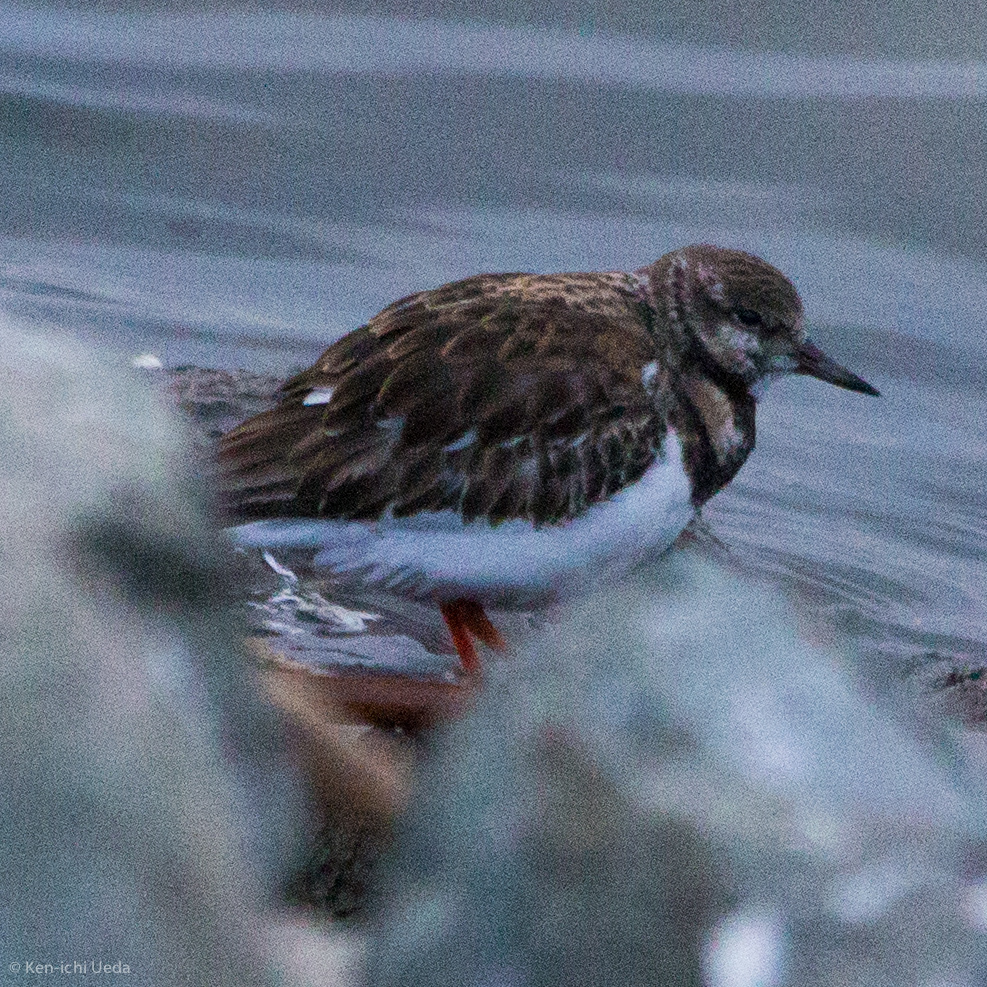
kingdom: Animalia
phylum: Chordata
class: Aves
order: Charadriiformes
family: Scolopacidae
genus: Arenaria
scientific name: Arenaria interpres
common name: Ruddy turnstone
